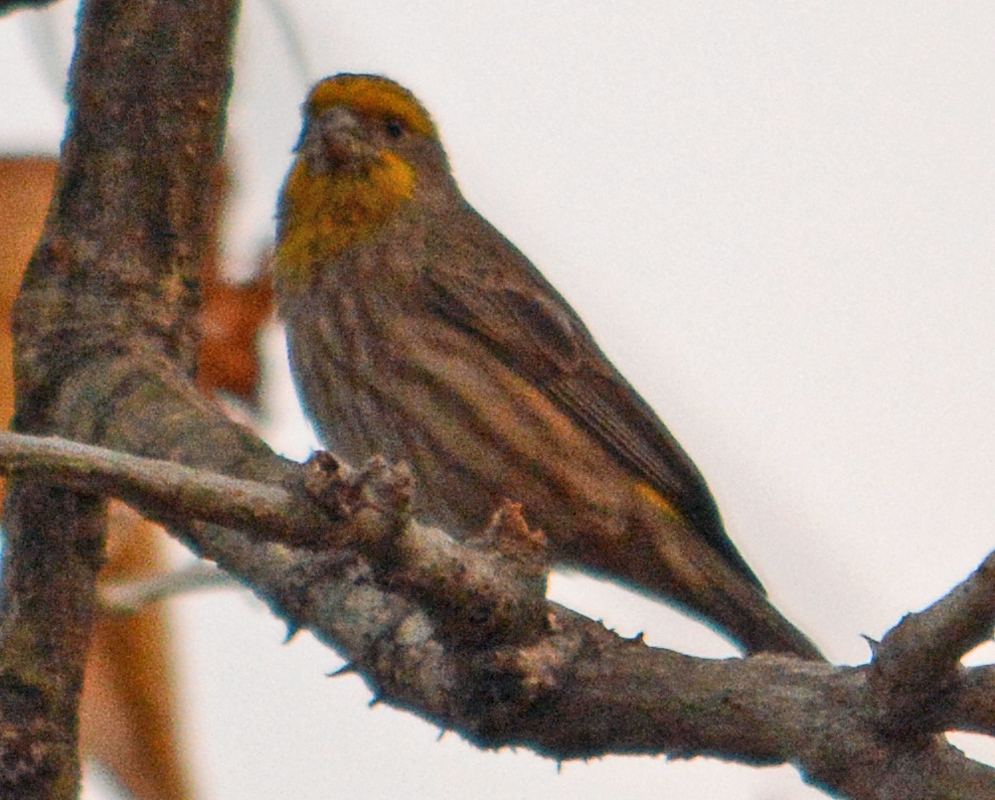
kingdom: Animalia
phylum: Chordata
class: Aves
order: Passeriformes
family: Fringillidae
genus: Haemorhous
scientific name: Haemorhous mexicanus
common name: House finch
